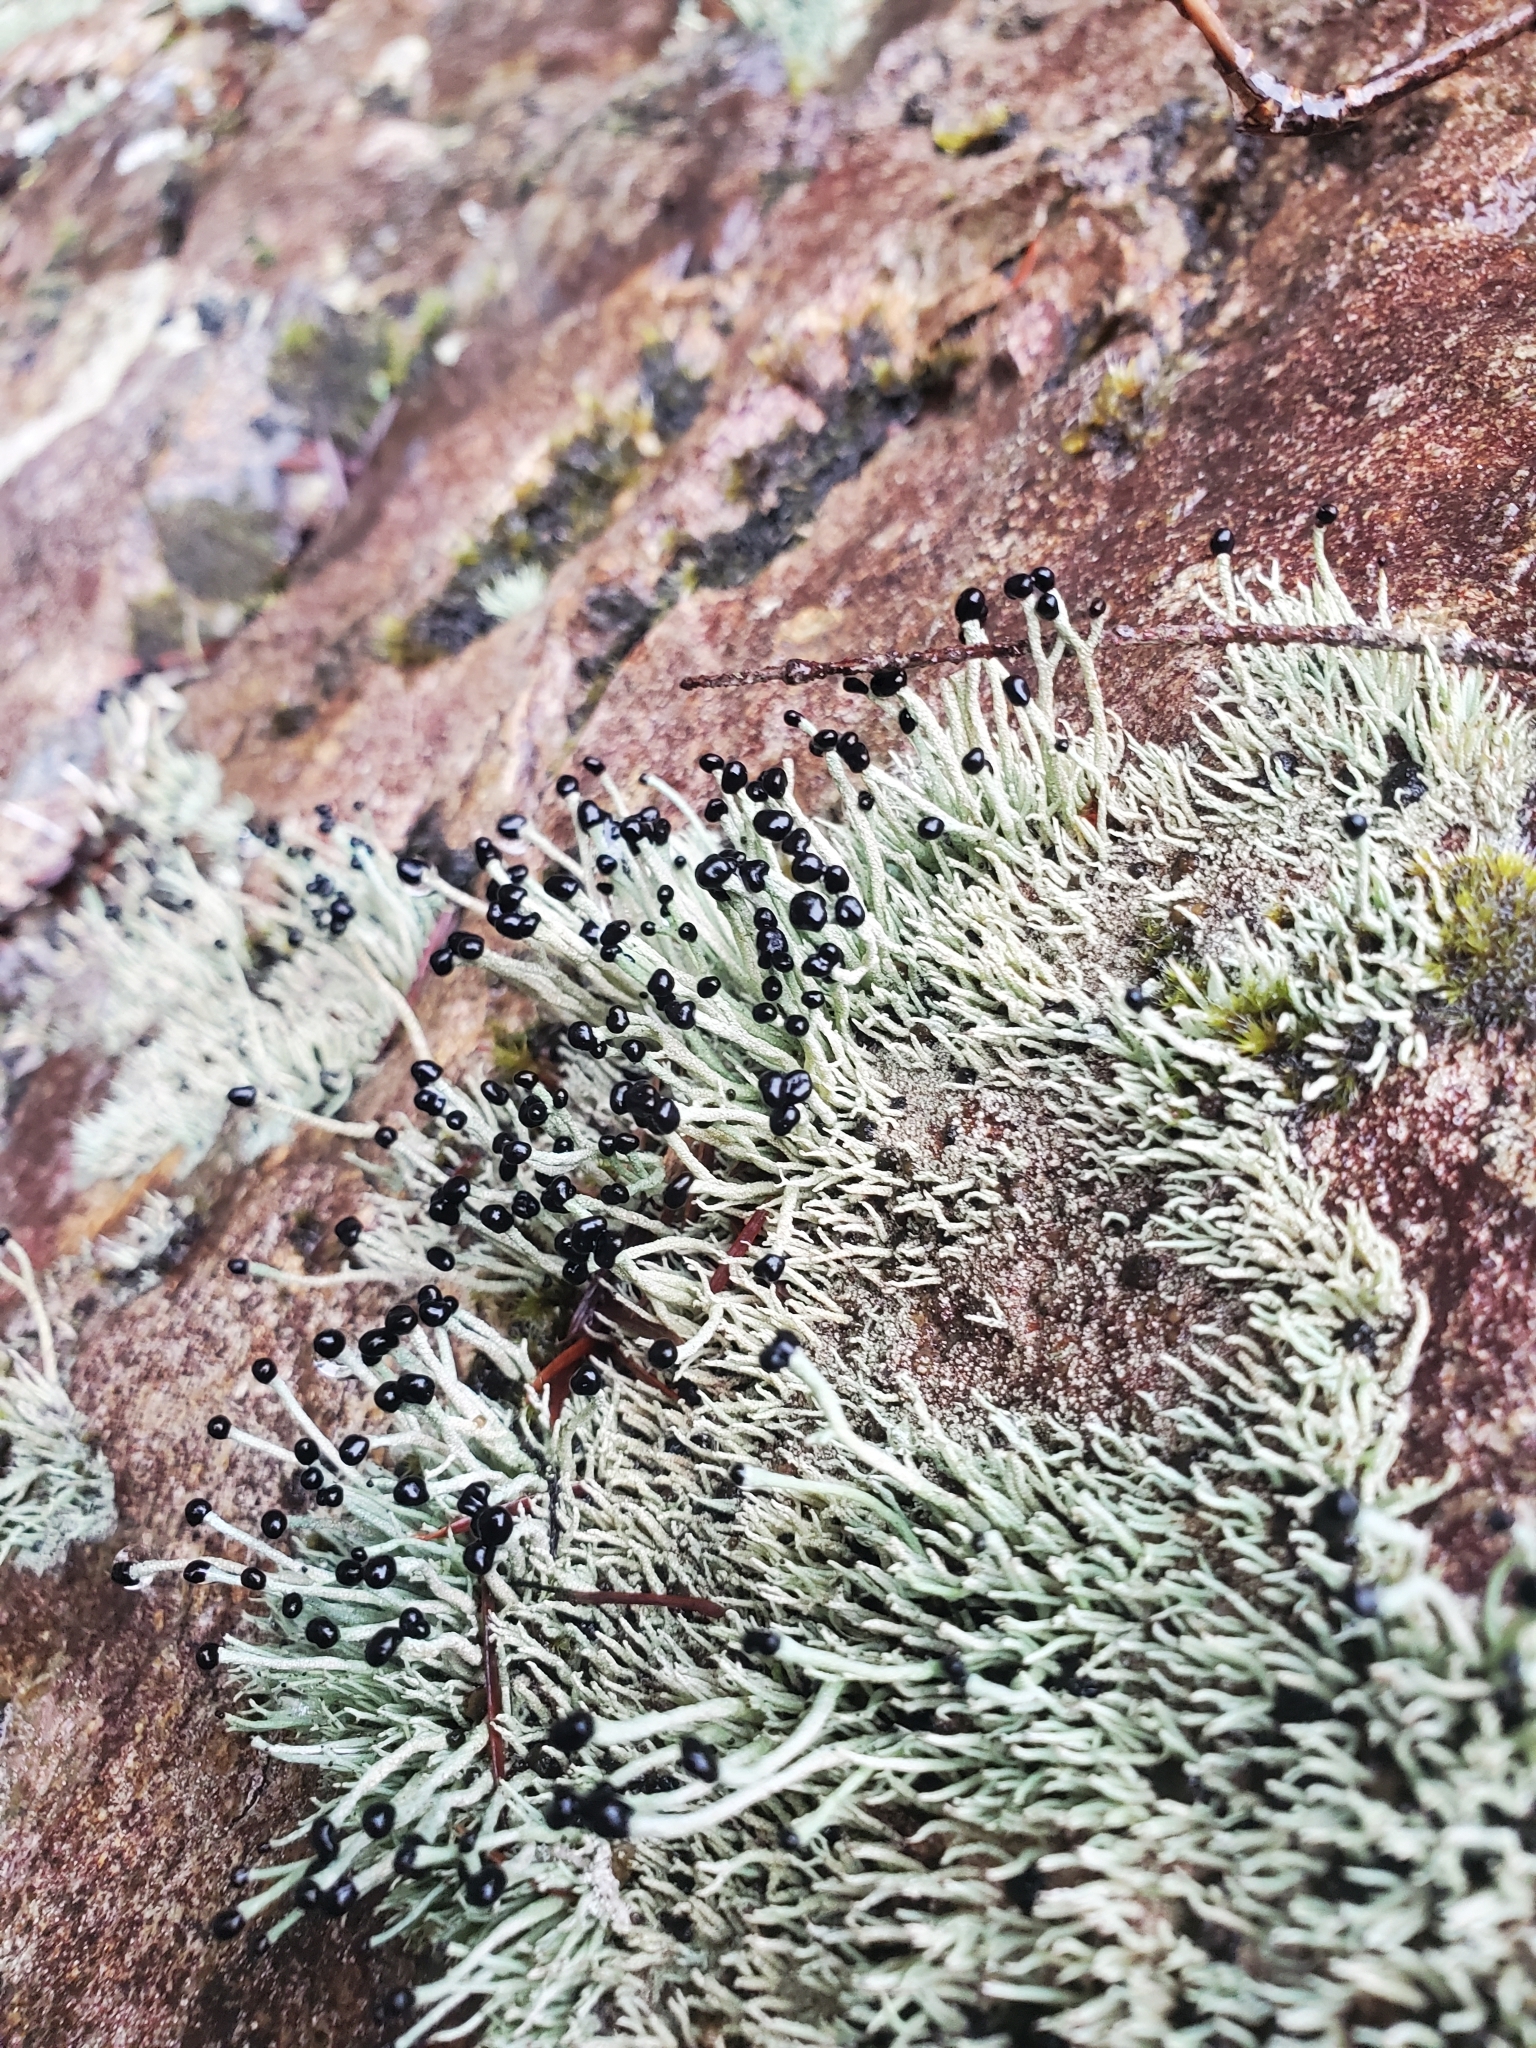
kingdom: Fungi
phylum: Ascomycota
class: Lecanoromycetes
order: Lecanorales
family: Cladoniaceae
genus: Pilophorus
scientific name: Pilophorus acicularis
